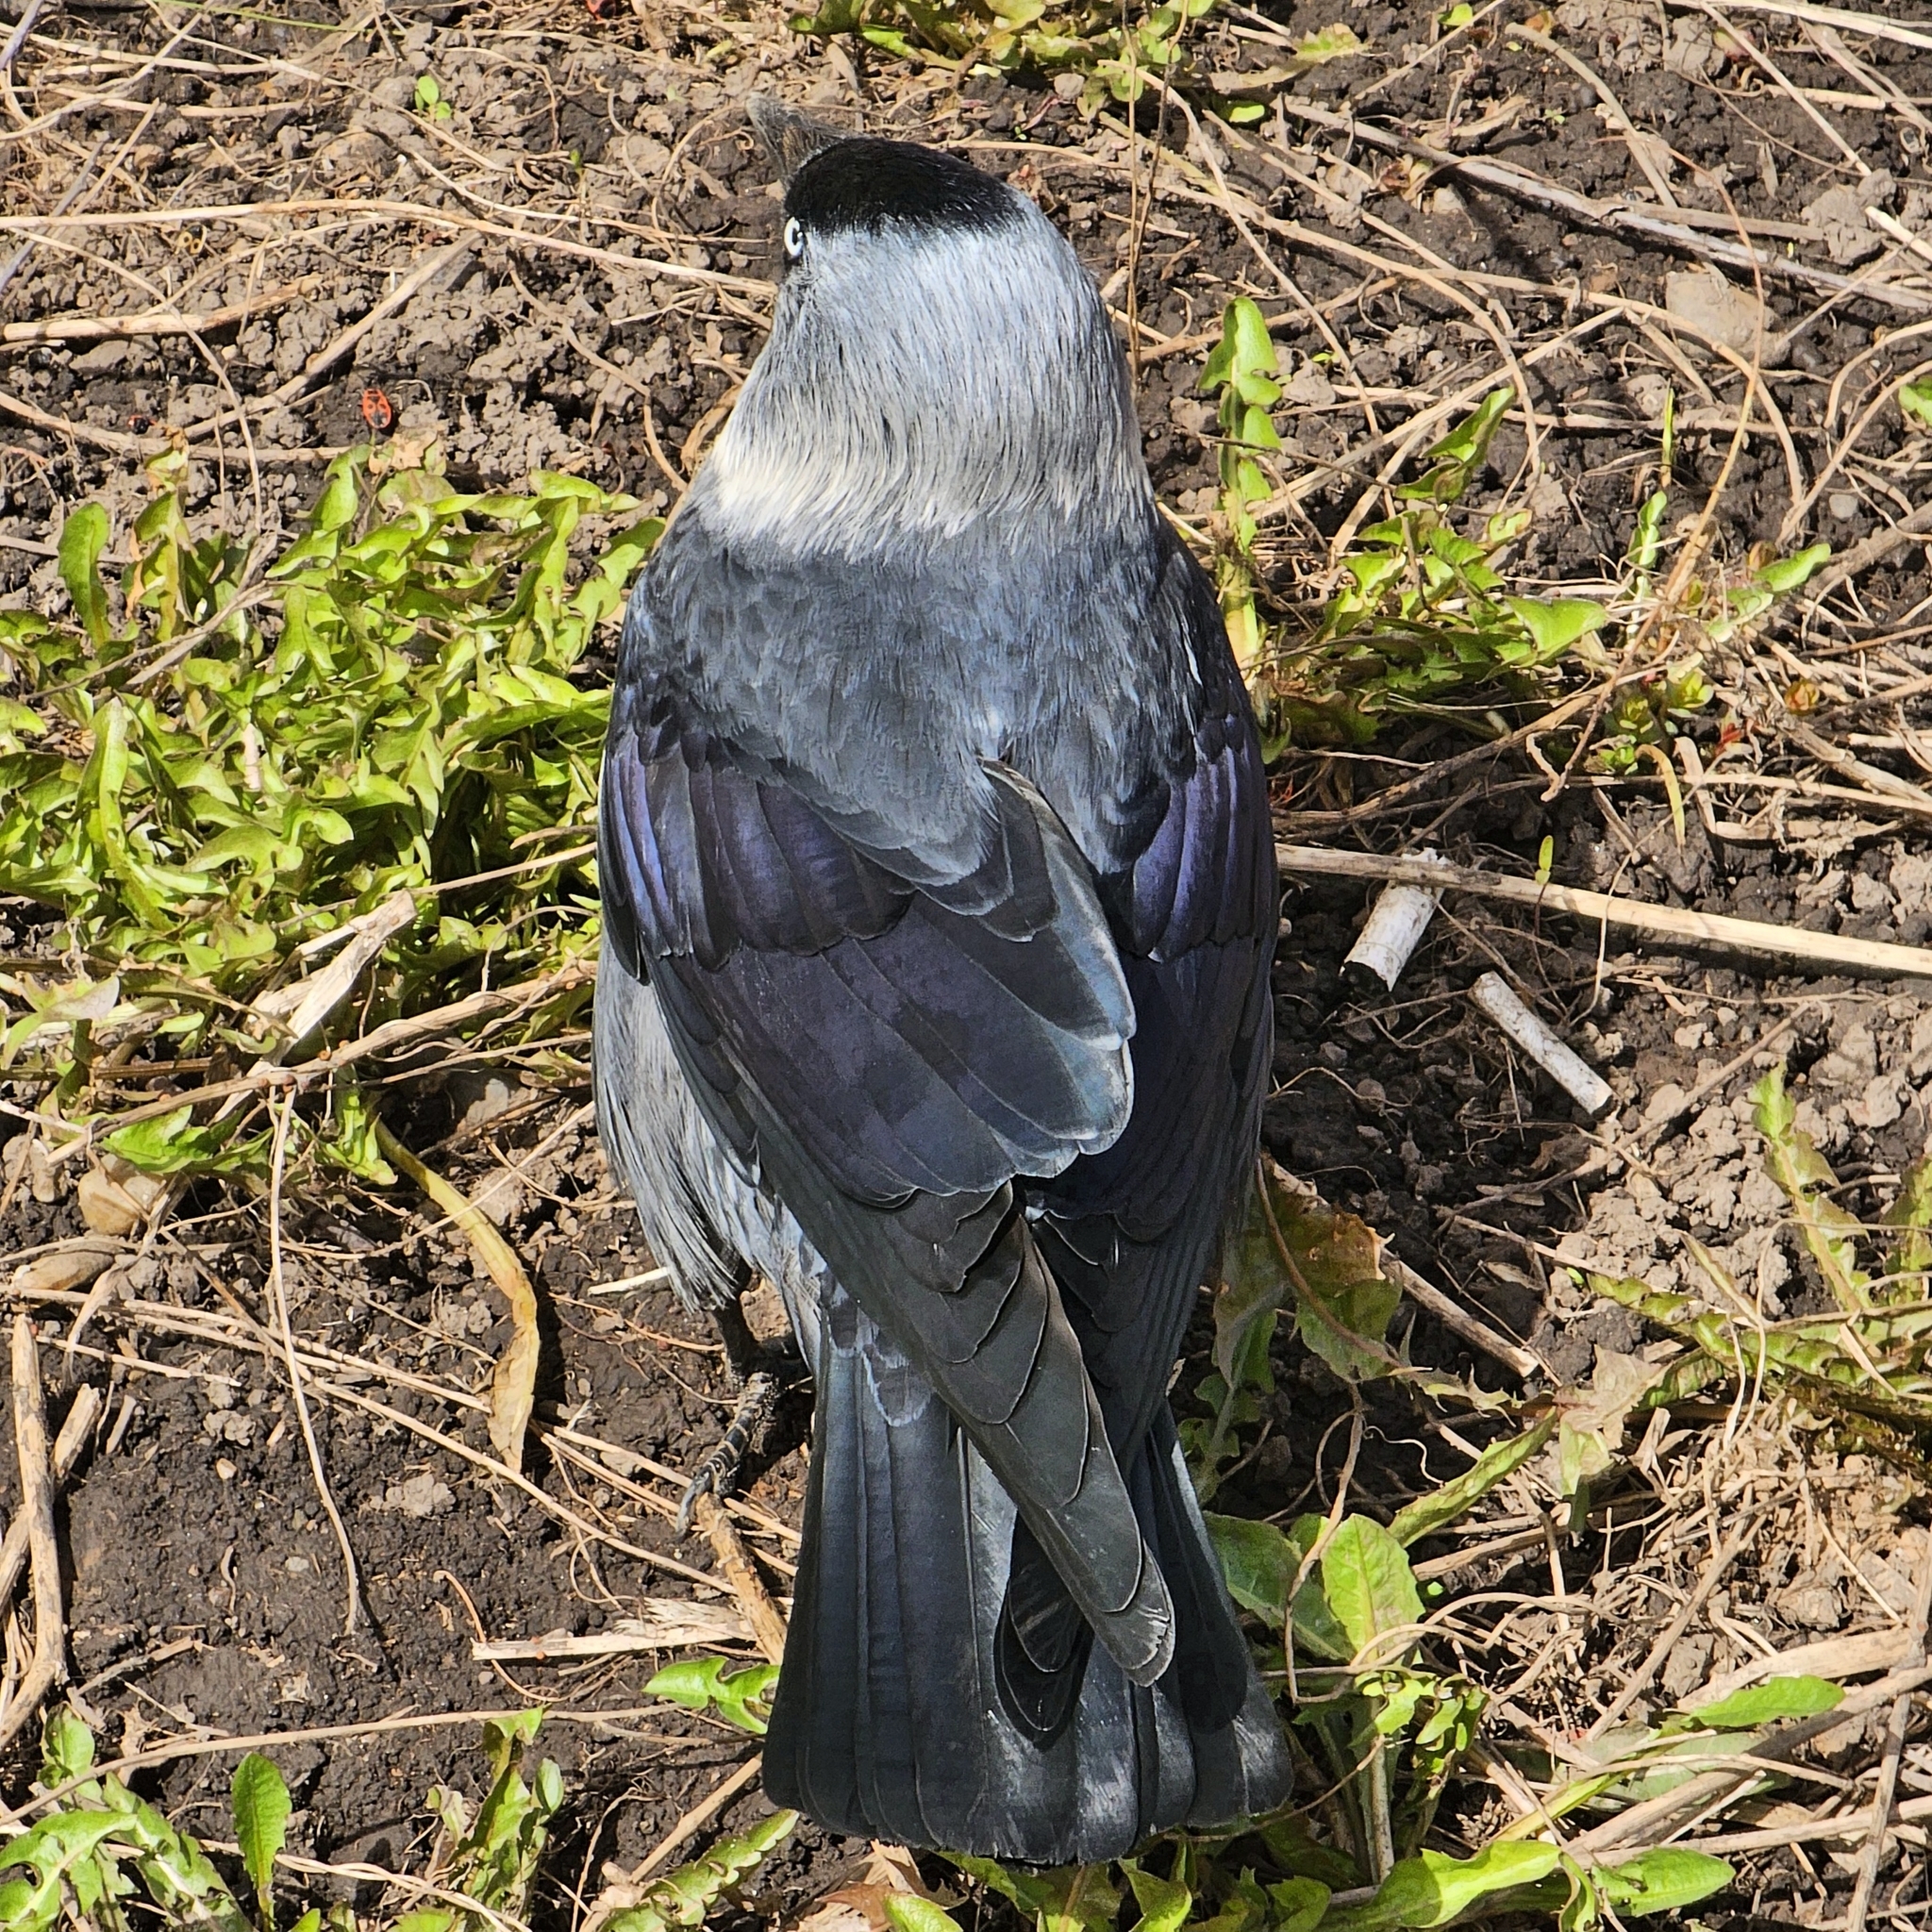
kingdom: Animalia
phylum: Chordata
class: Aves
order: Passeriformes
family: Corvidae
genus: Coloeus
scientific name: Coloeus monedula
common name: Western jackdaw
